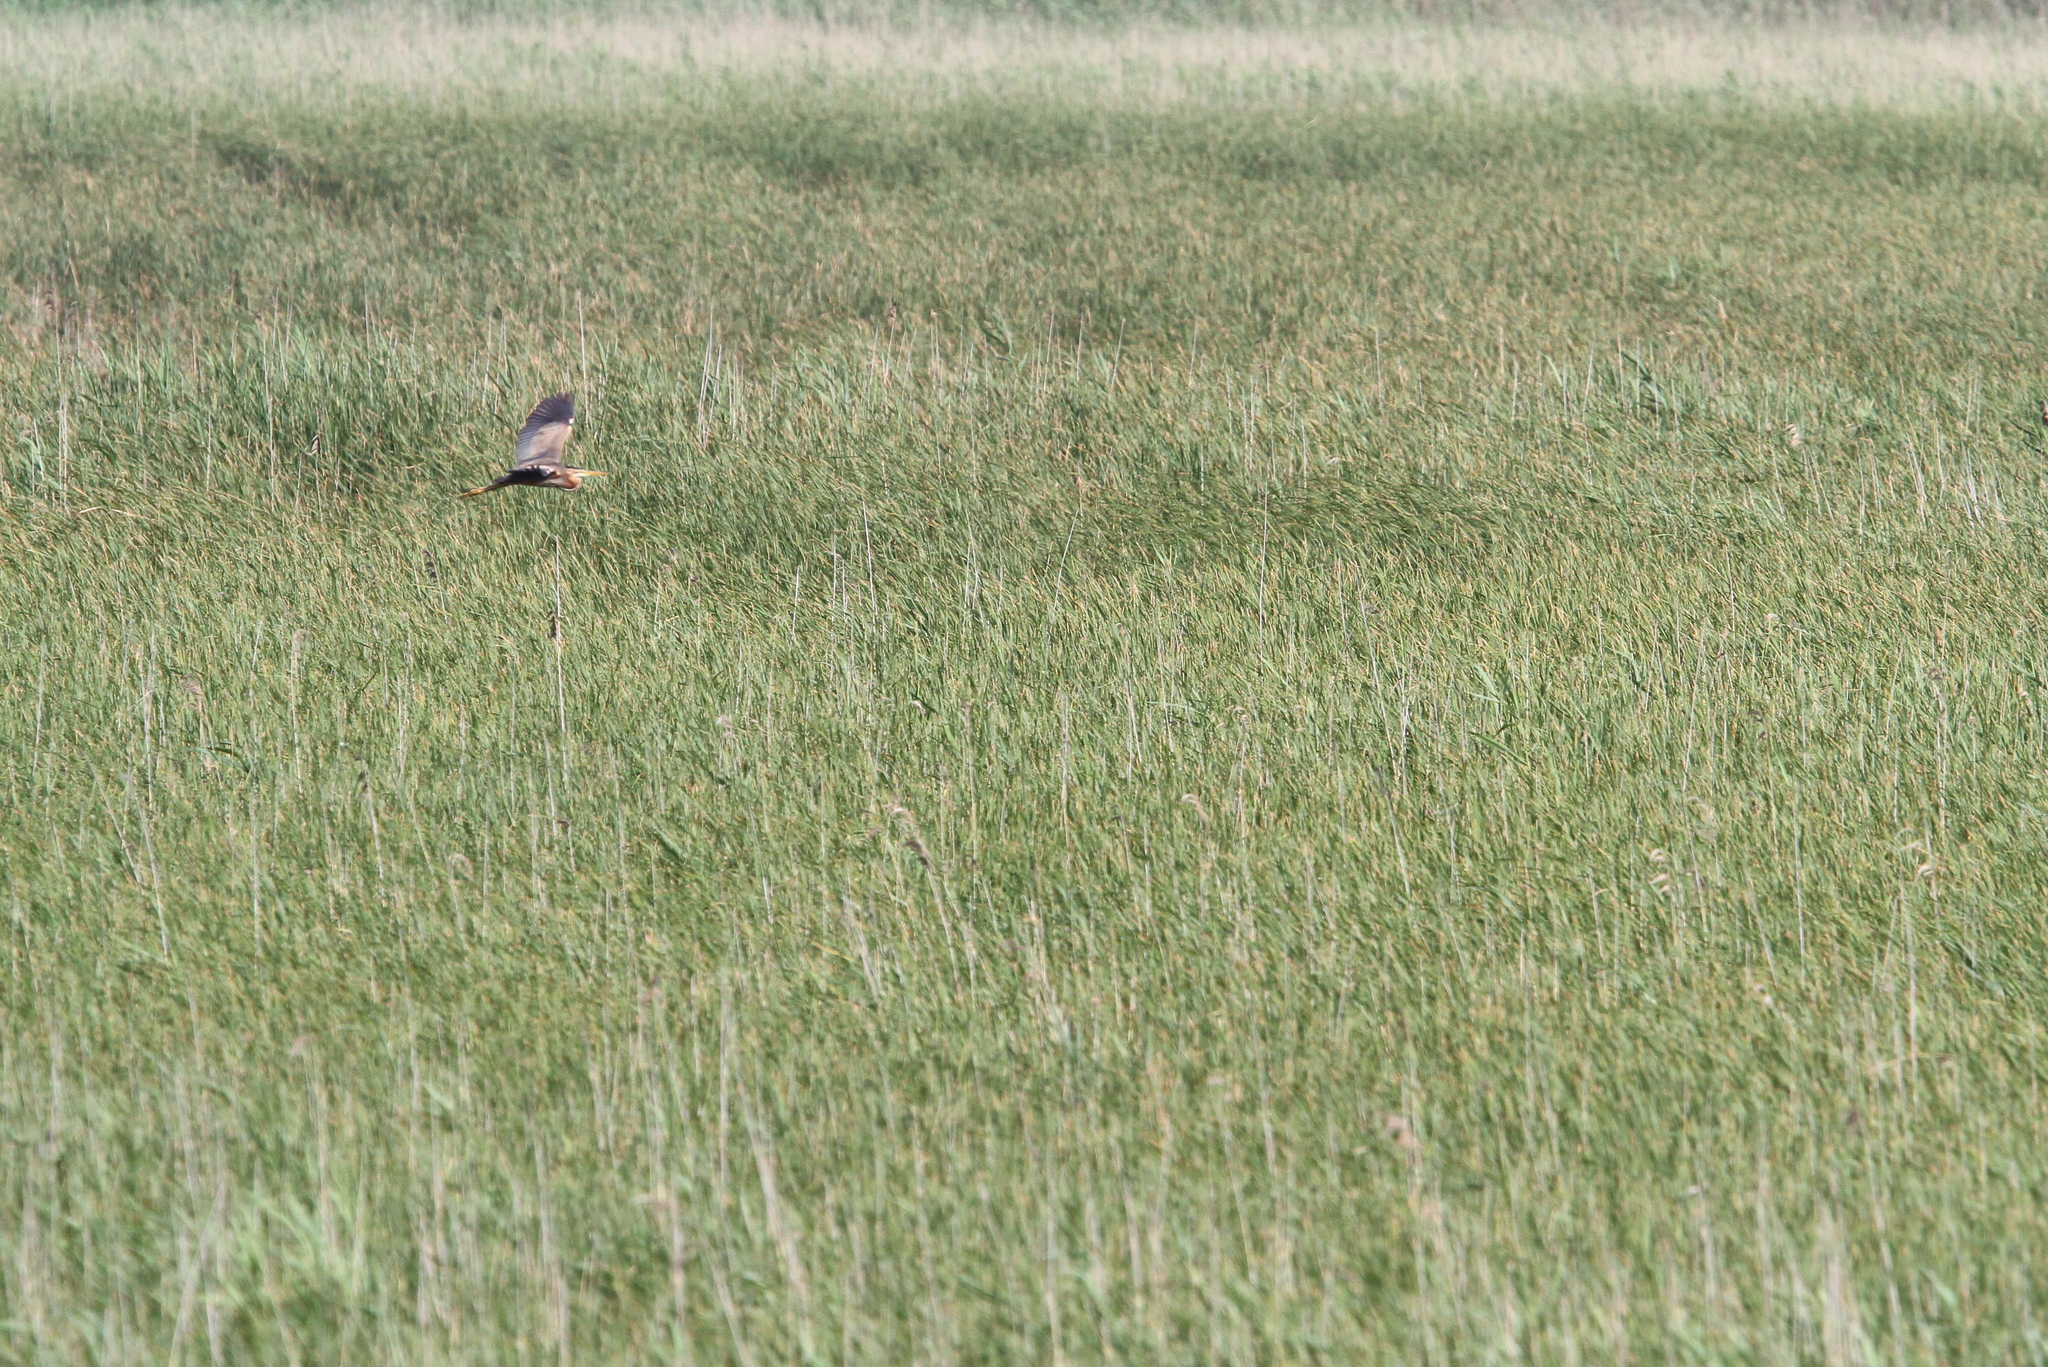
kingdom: Animalia
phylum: Chordata
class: Aves
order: Pelecaniformes
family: Ardeidae
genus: Ardea
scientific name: Ardea purpurea
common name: Purple heron
